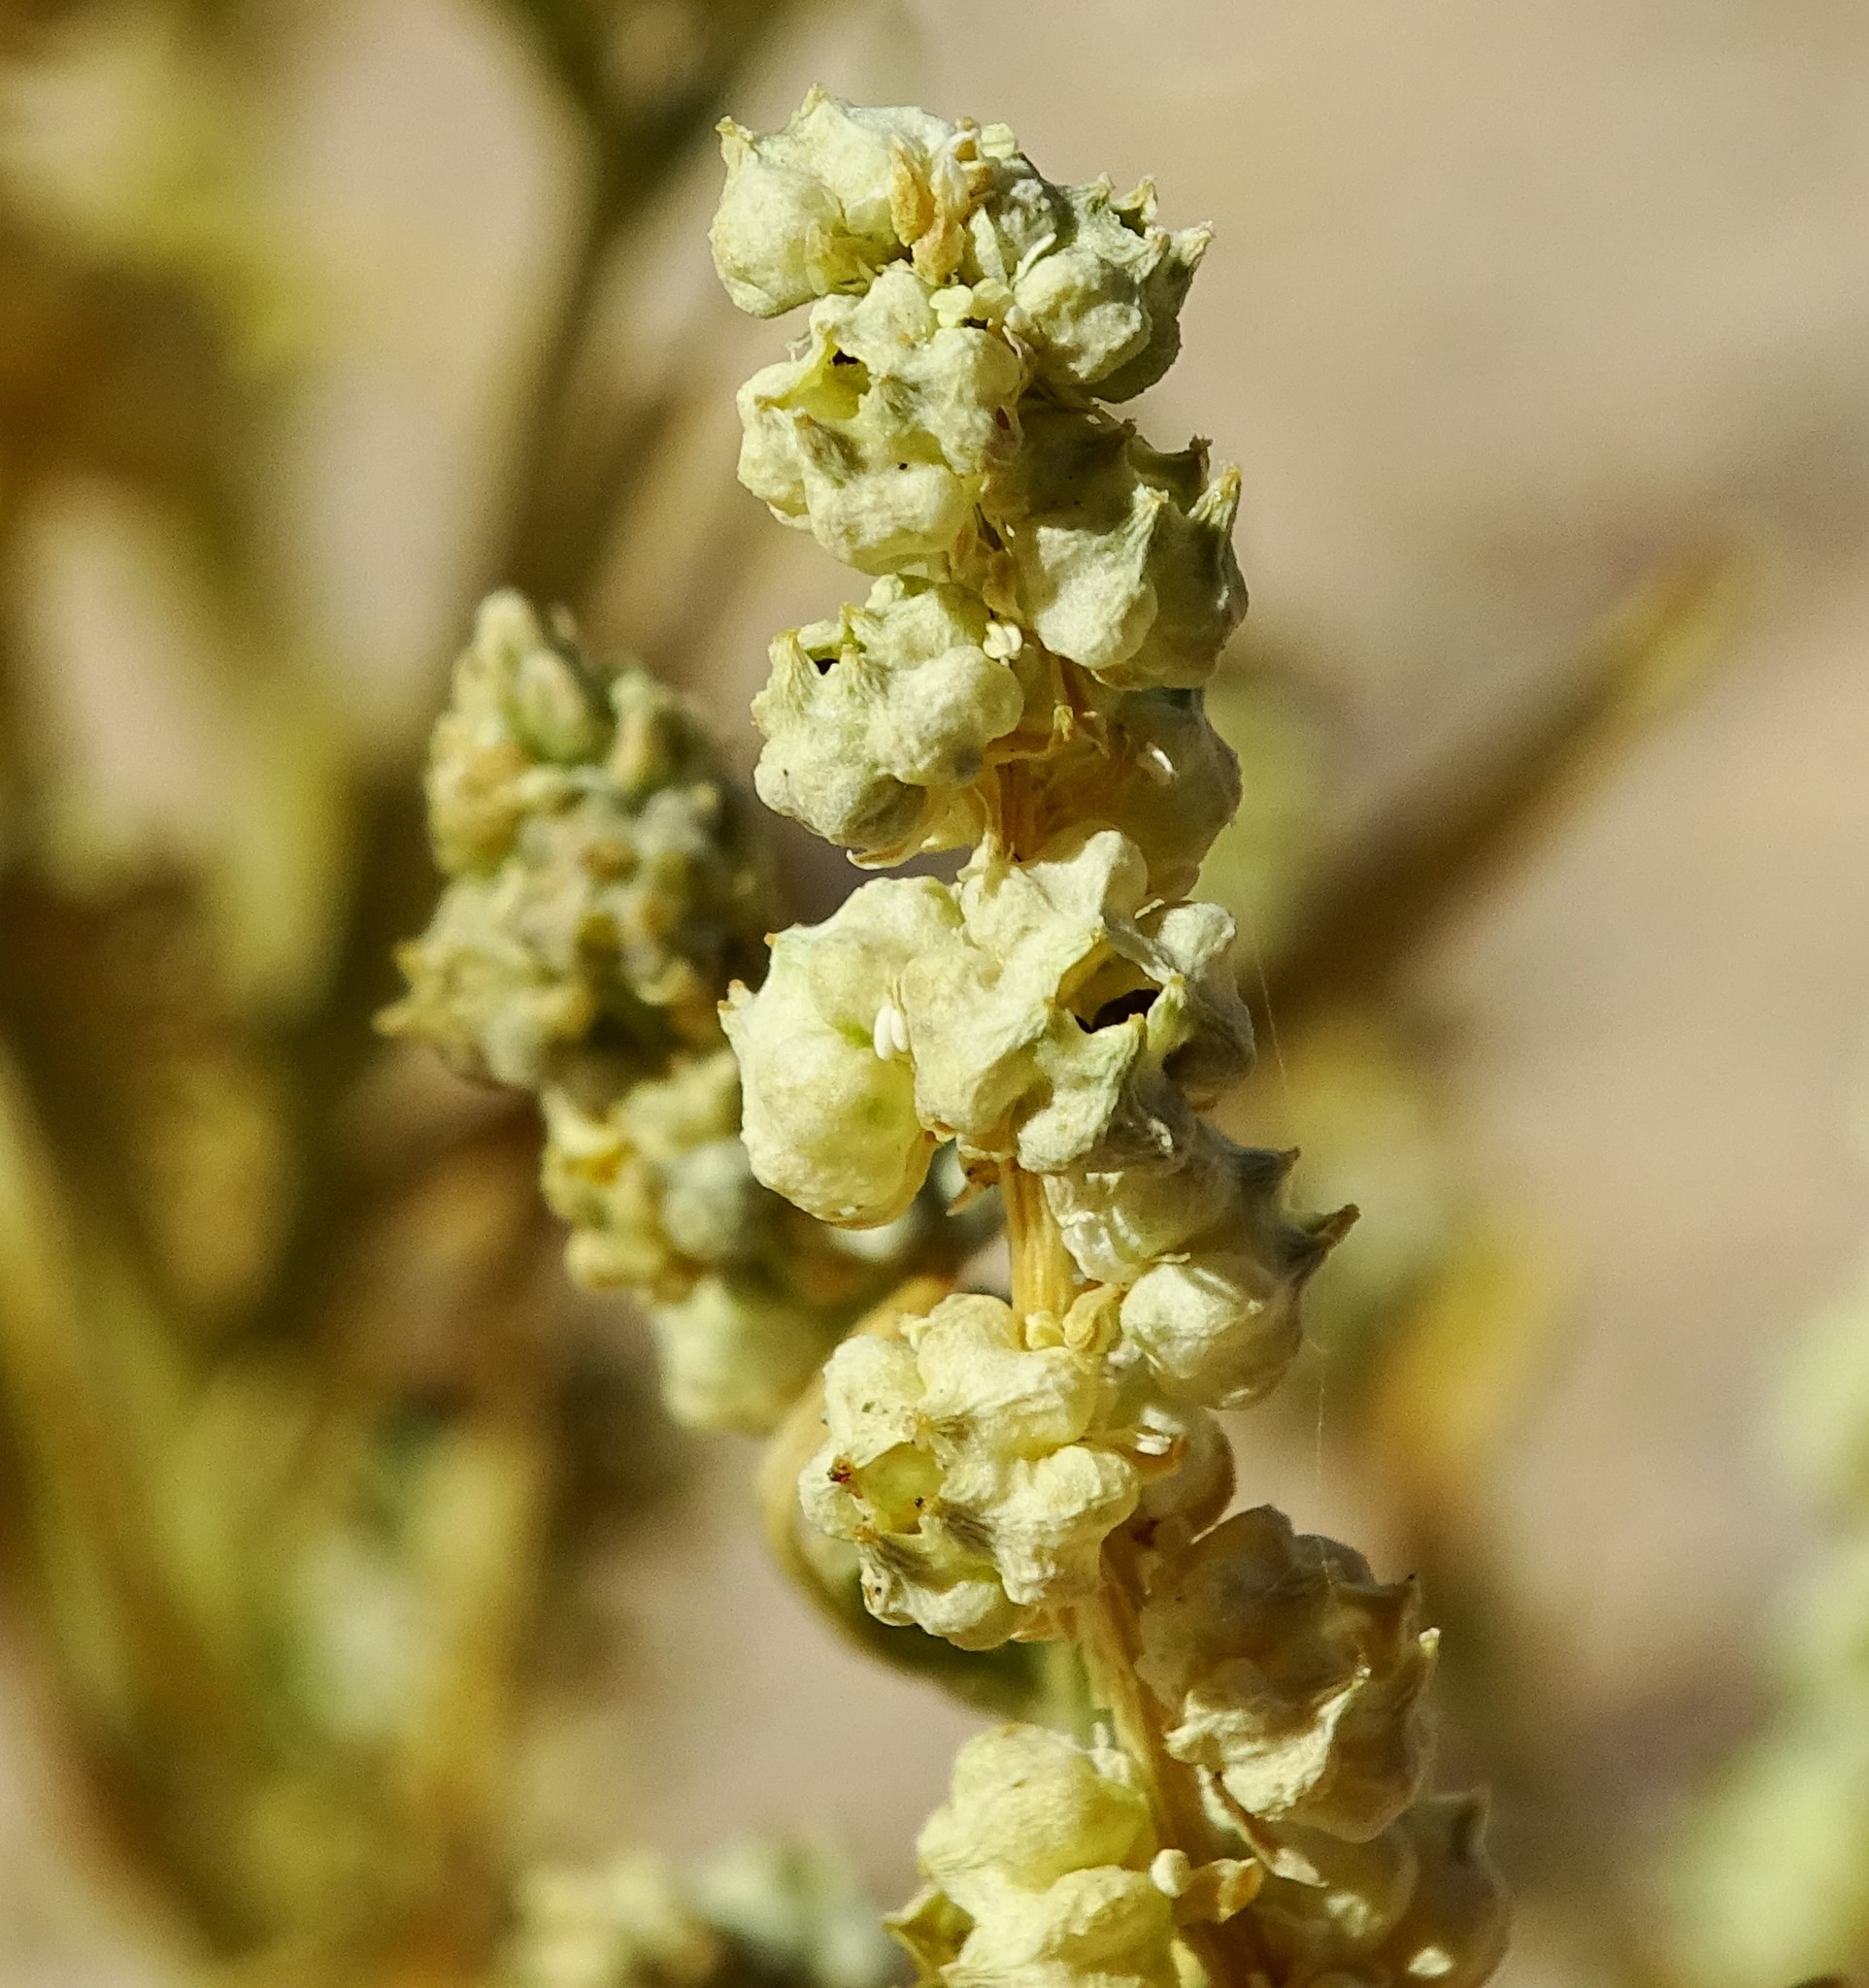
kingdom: Plantae
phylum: Tracheophyta
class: Magnoliopsida
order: Brassicales
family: Resedaceae
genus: Oligomeris
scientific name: Oligomeris linifolia
